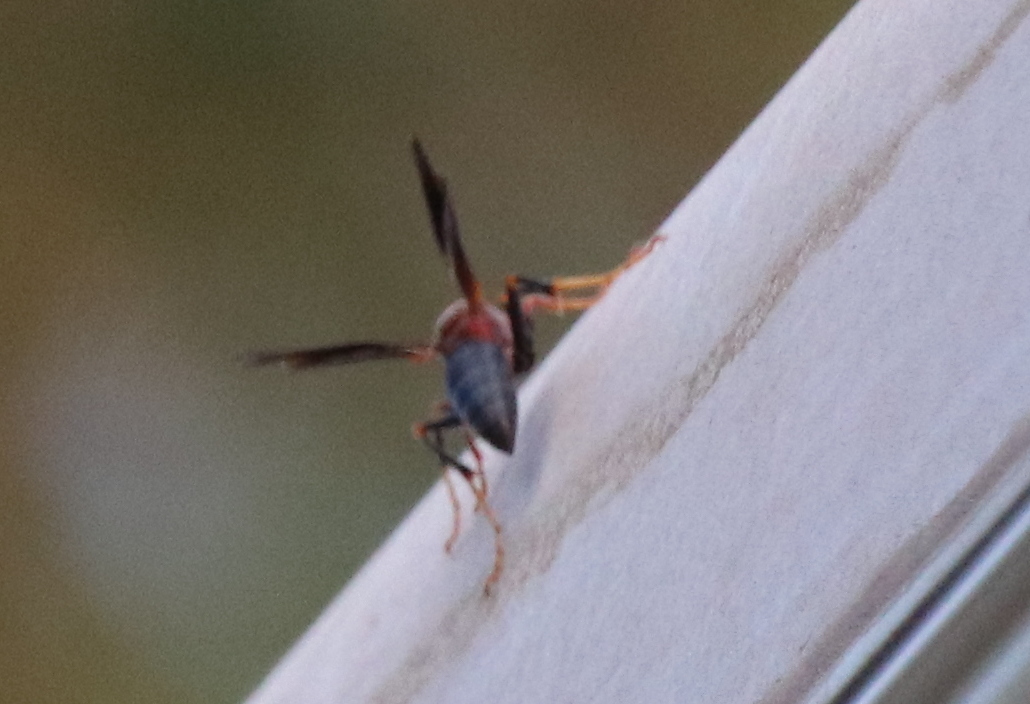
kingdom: Animalia
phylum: Arthropoda
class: Insecta
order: Hymenoptera
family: Eumenidae
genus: Polistes
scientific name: Polistes
